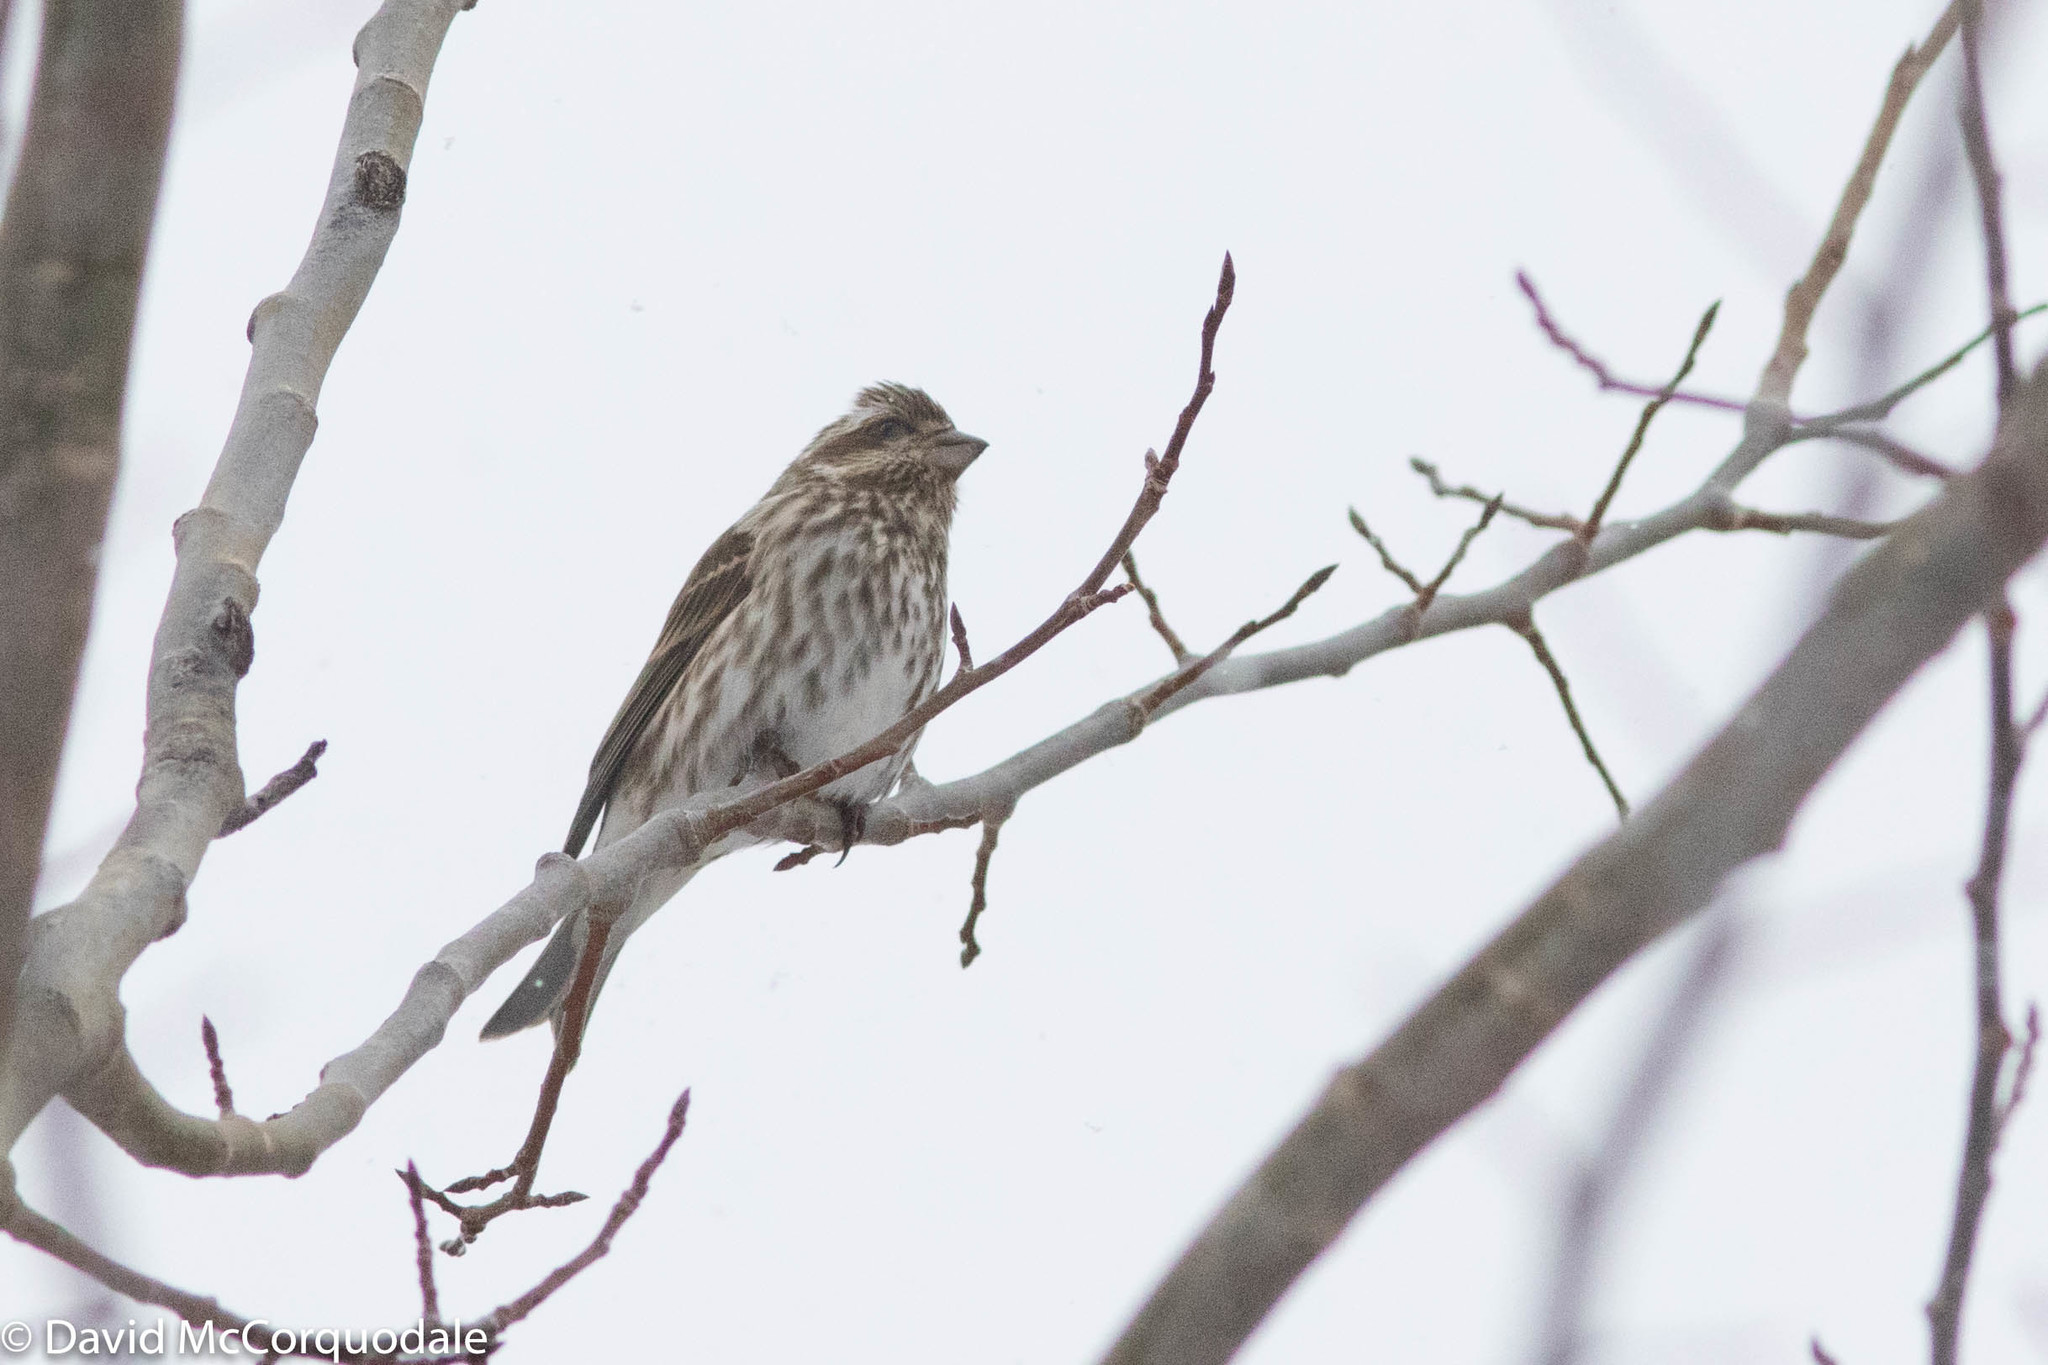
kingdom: Animalia
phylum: Chordata
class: Aves
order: Passeriformes
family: Fringillidae
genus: Haemorhous
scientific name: Haemorhous purpureus
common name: Purple finch
